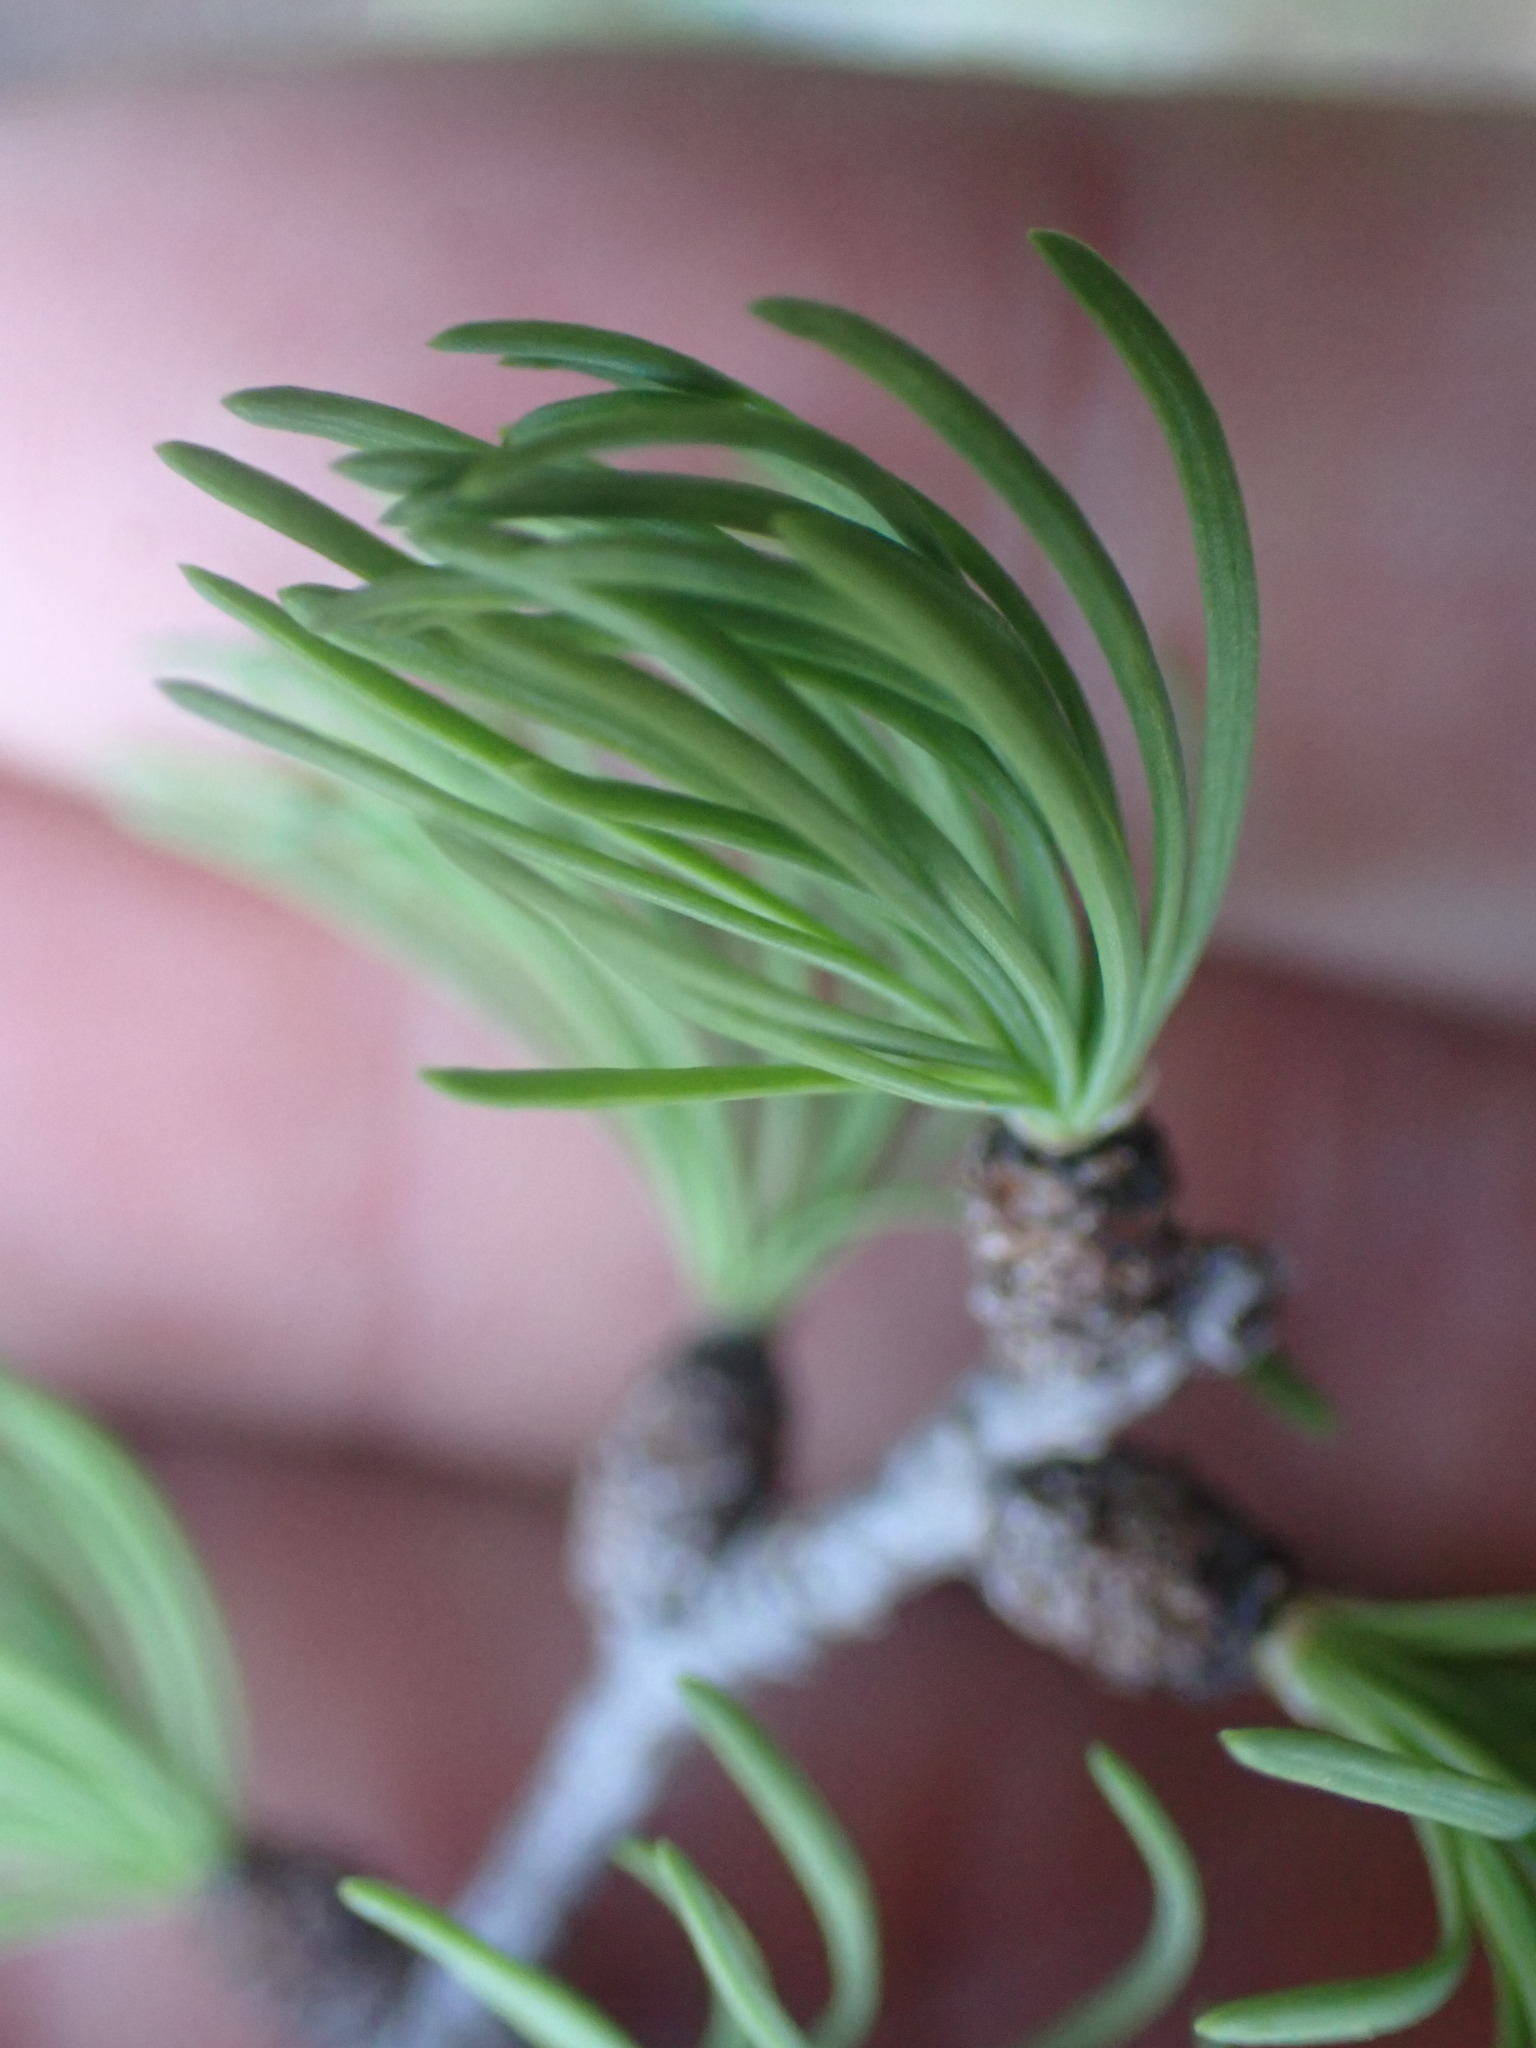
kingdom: Plantae
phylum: Tracheophyta
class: Pinopsida
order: Pinales
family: Pinaceae
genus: Larix
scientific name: Larix lyallii
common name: Alpine larch
